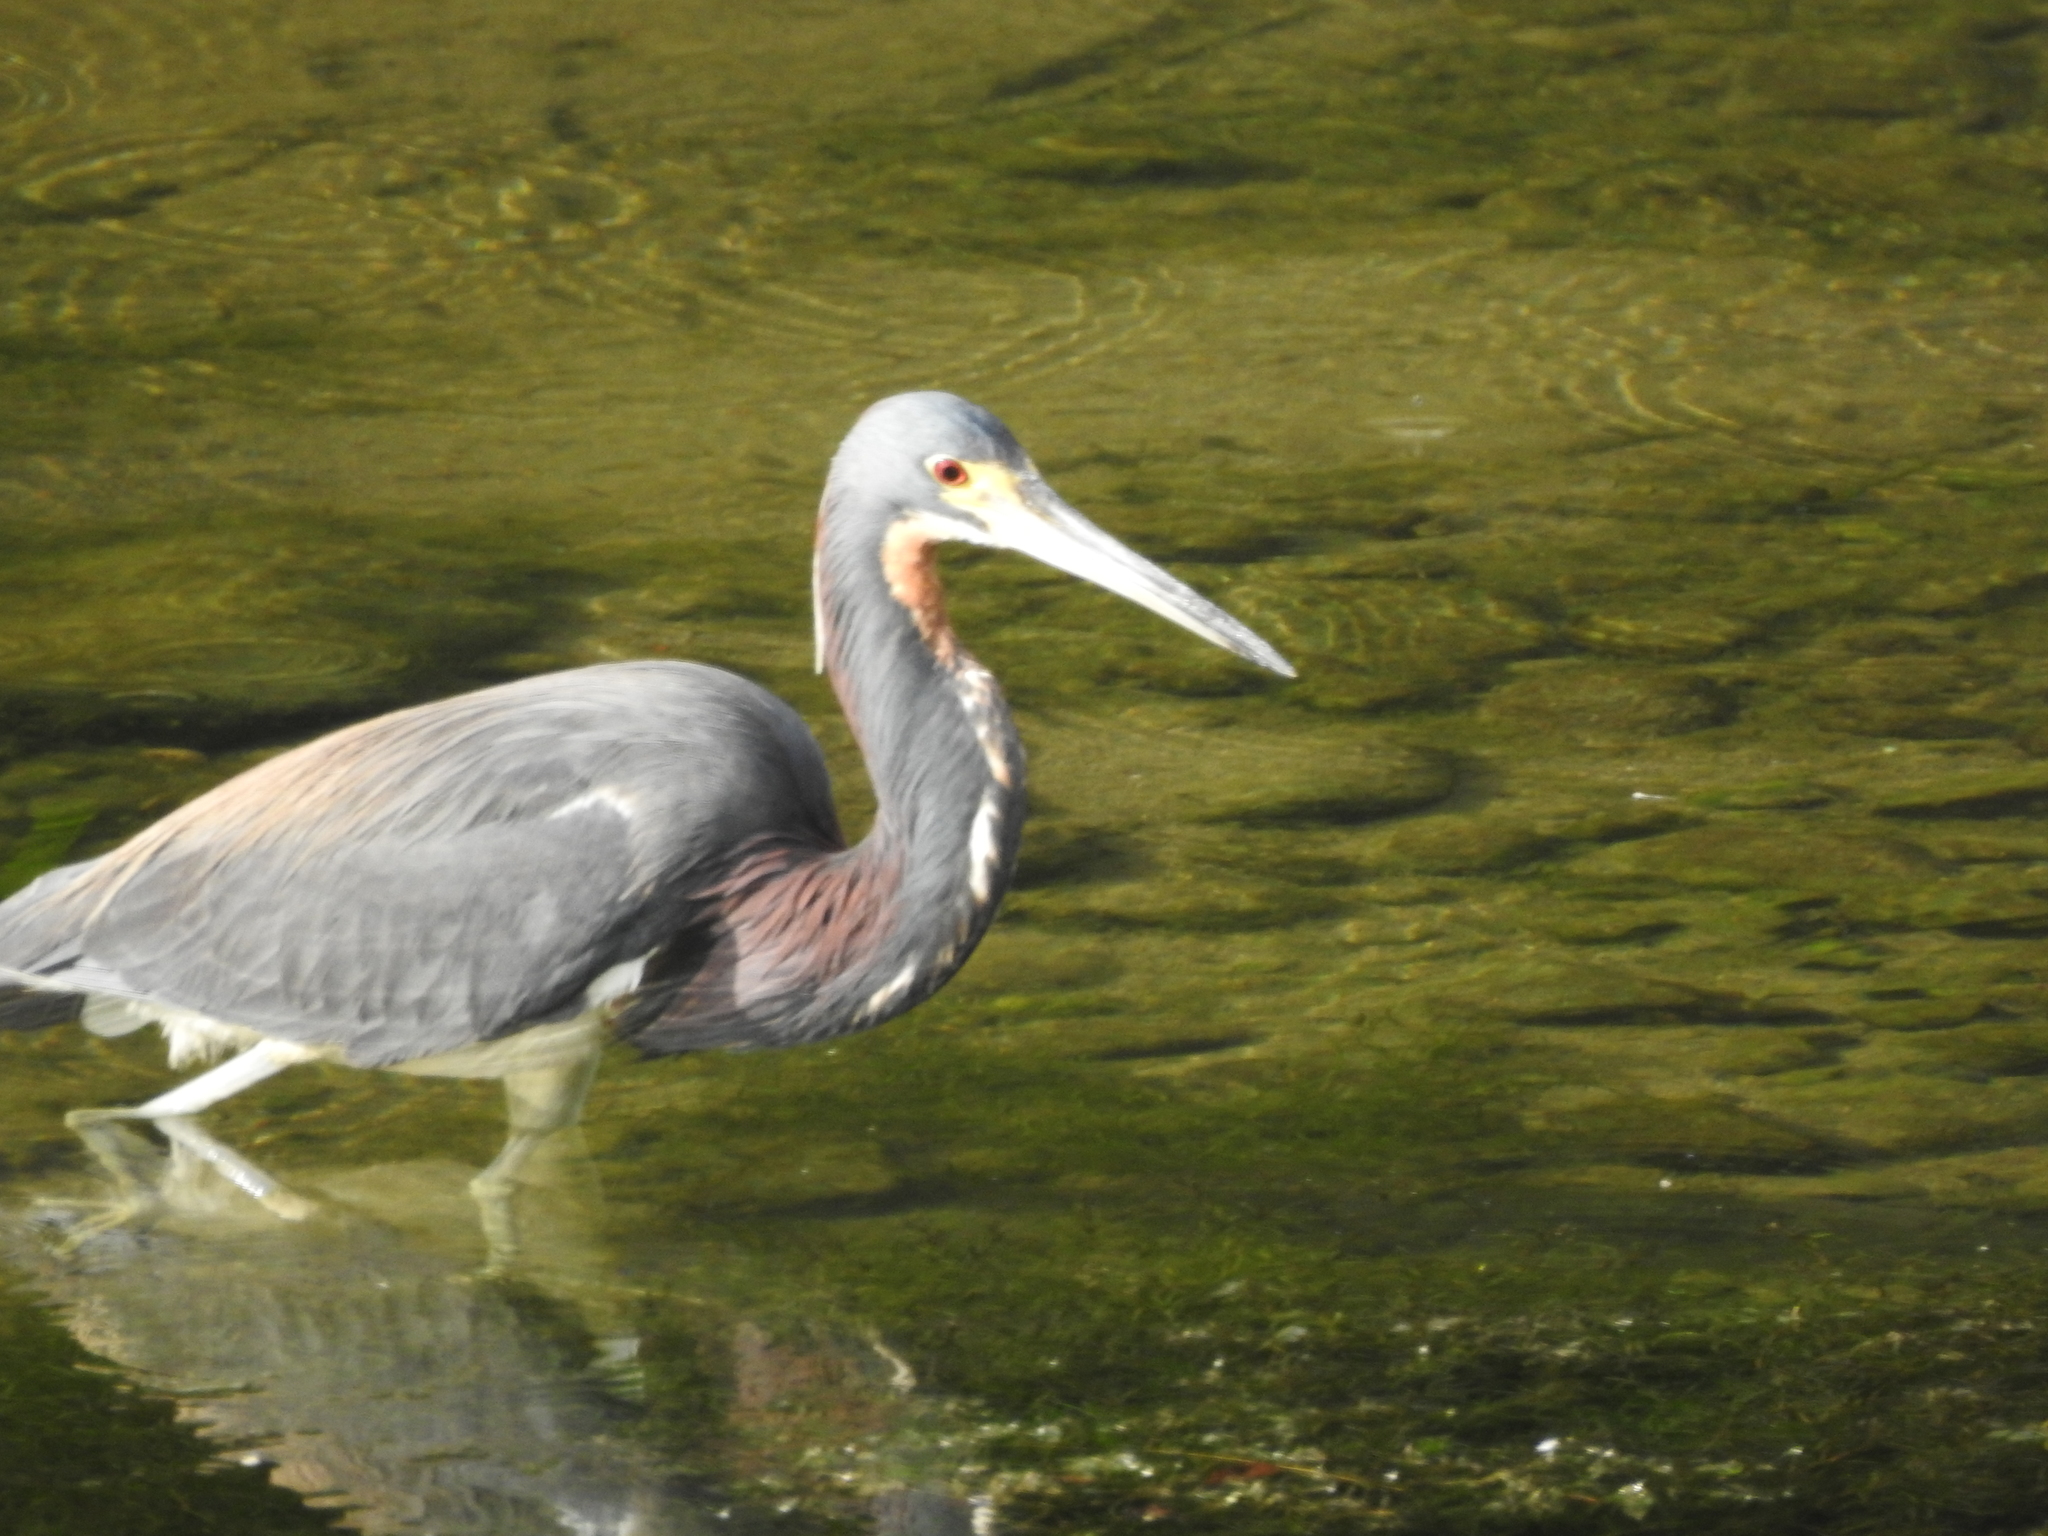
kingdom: Animalia
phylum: Chordata
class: Aves
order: Pelecaniformes
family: Ardeidae
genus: Egretta
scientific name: Egretta tricolor
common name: Tricolored heron
